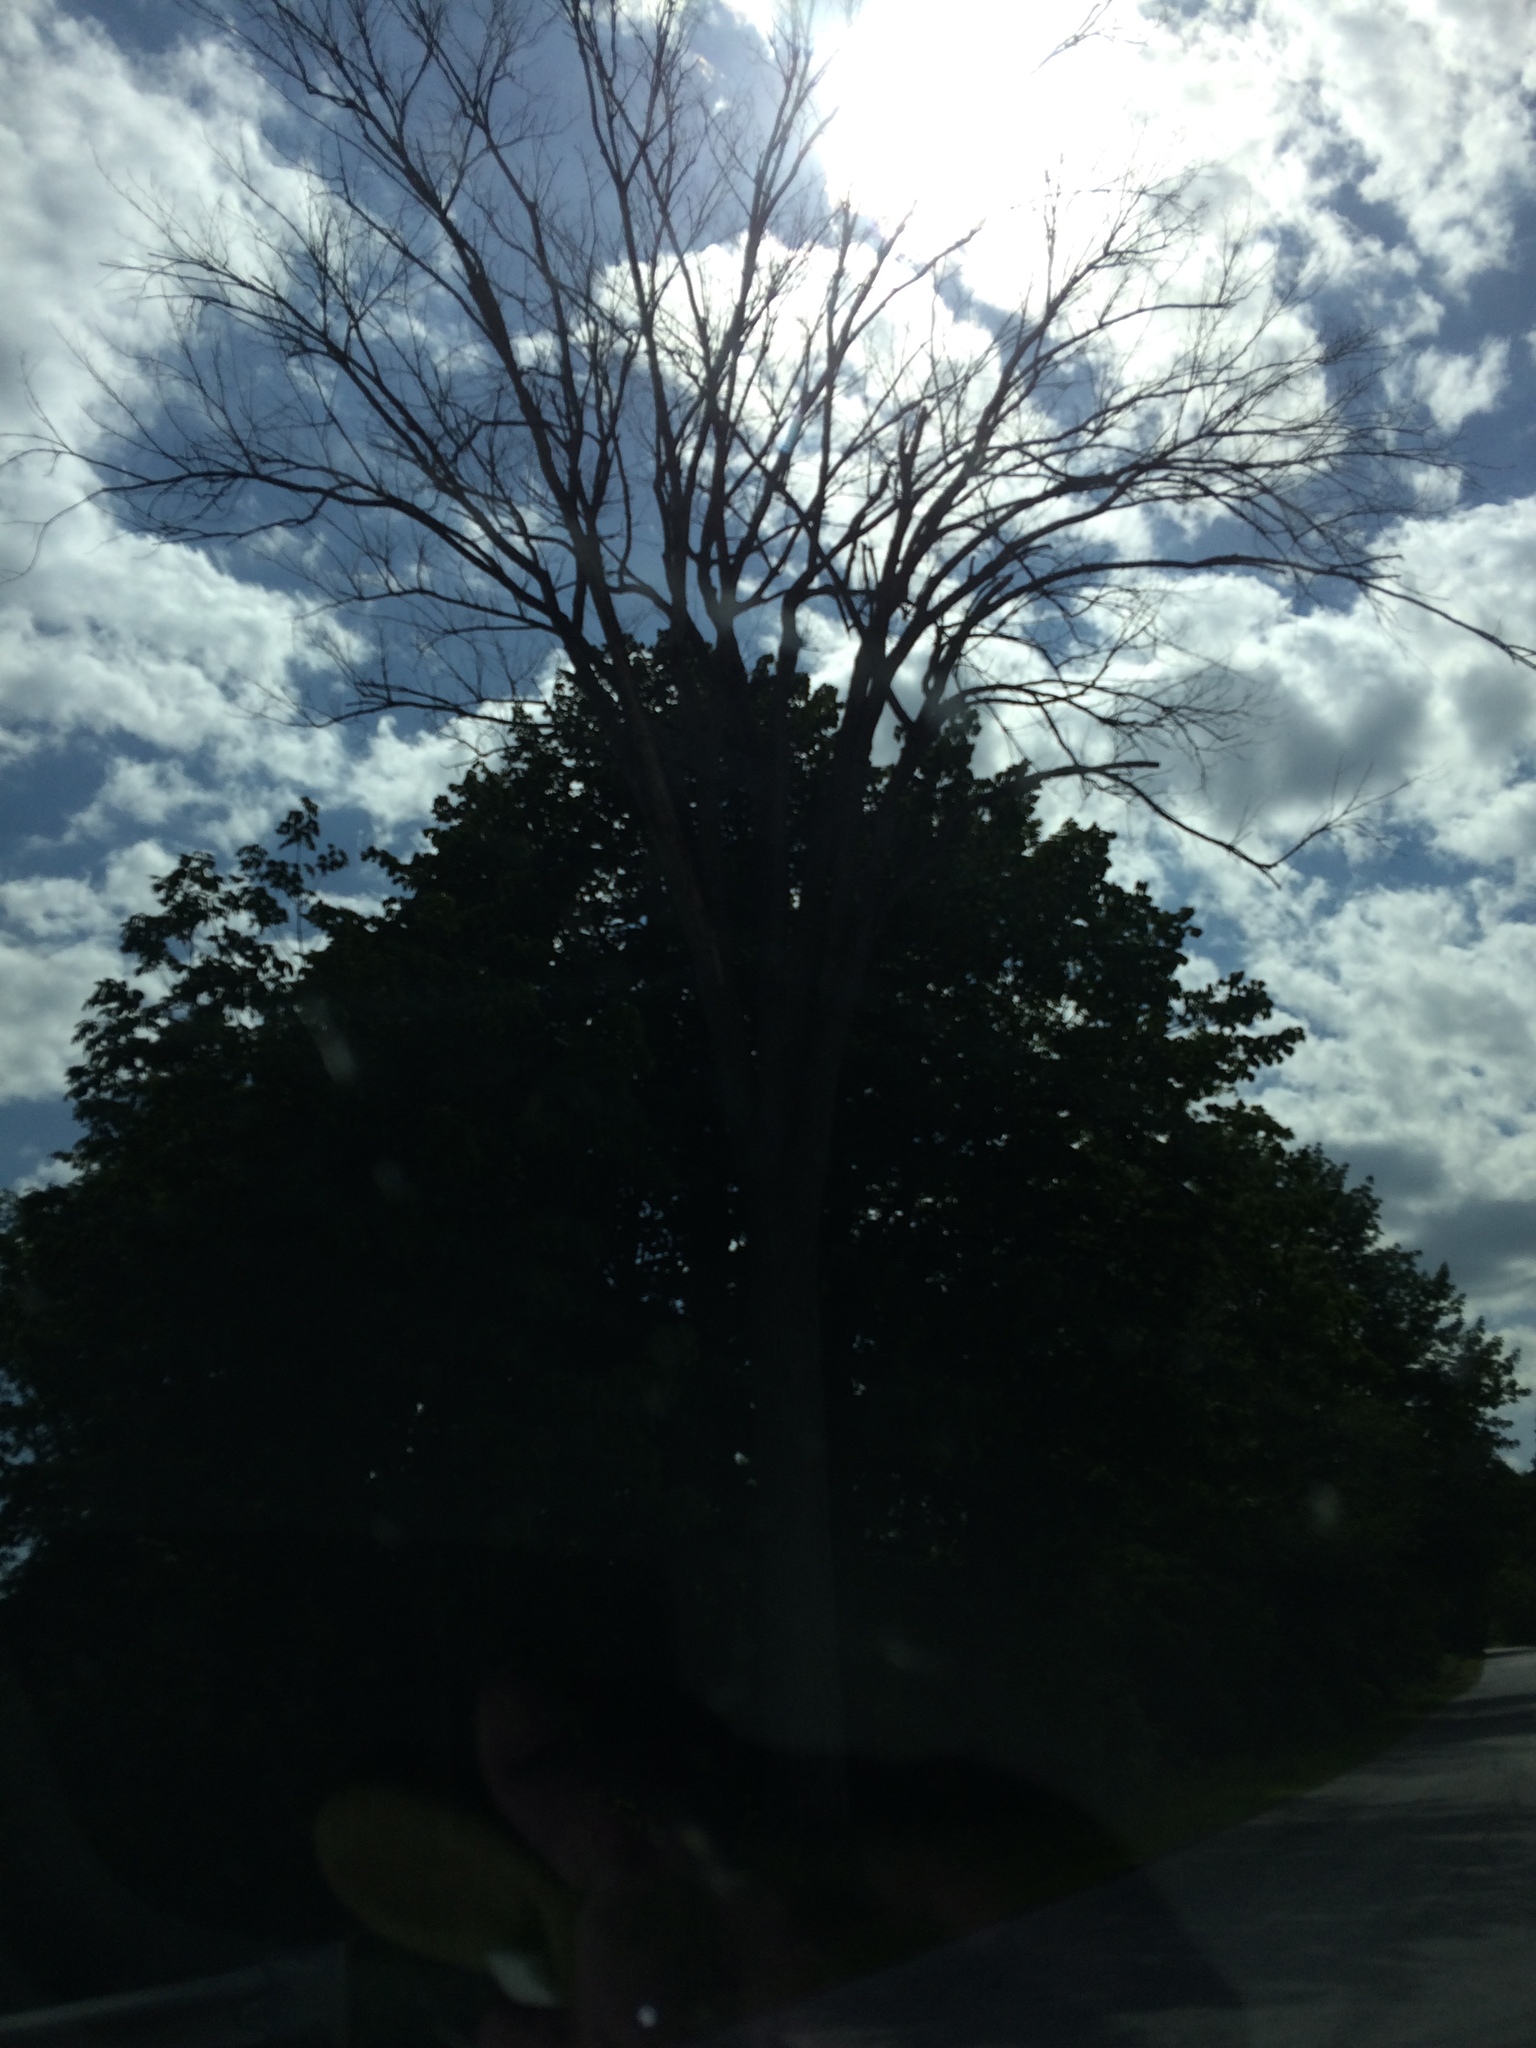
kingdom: Plantae
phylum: Tracheophyta
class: Magnoliopsida
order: Rosales
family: Ulmaceae
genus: Ulmus
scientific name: Ulmus americana
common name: American elm
